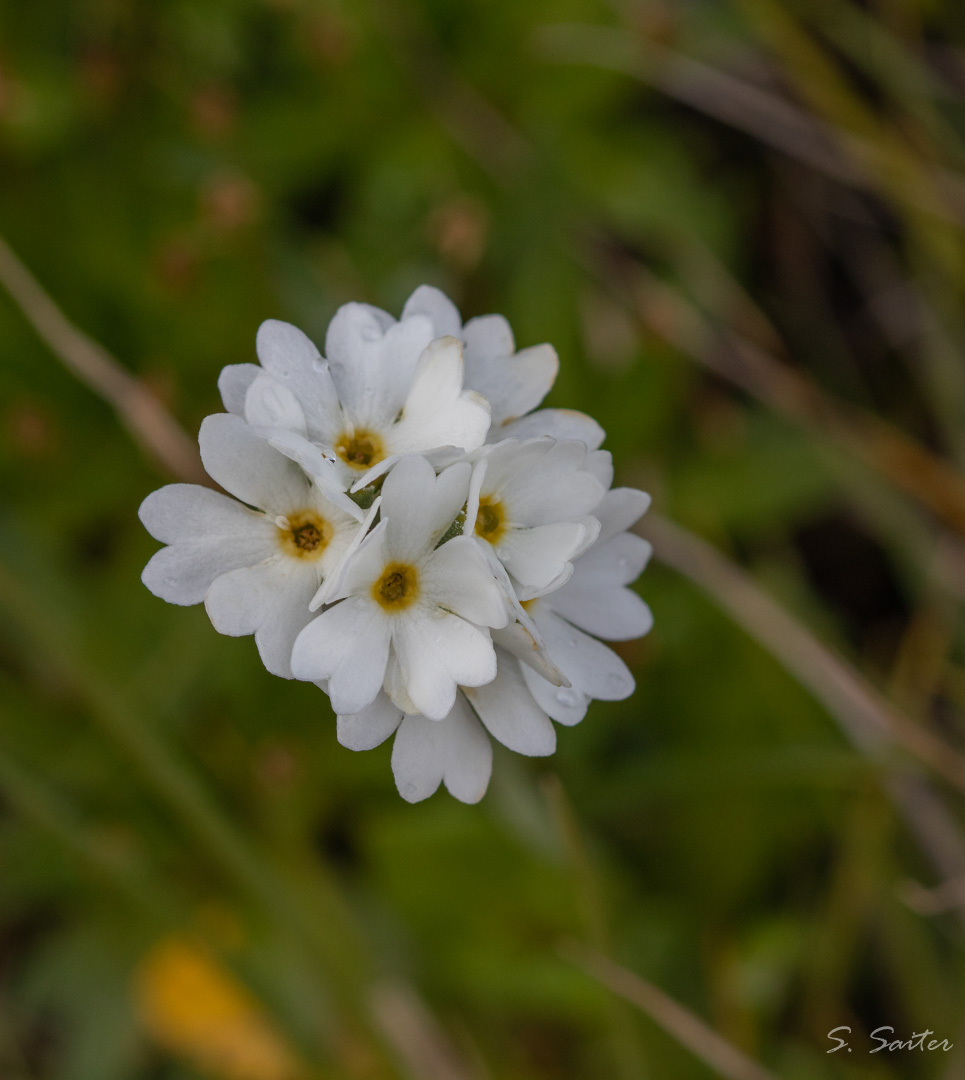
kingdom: Plantae
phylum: Tracheophyta
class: Magnoliopsida
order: Ericales
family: Primulaceae
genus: Primula
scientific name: Primula magellanica
